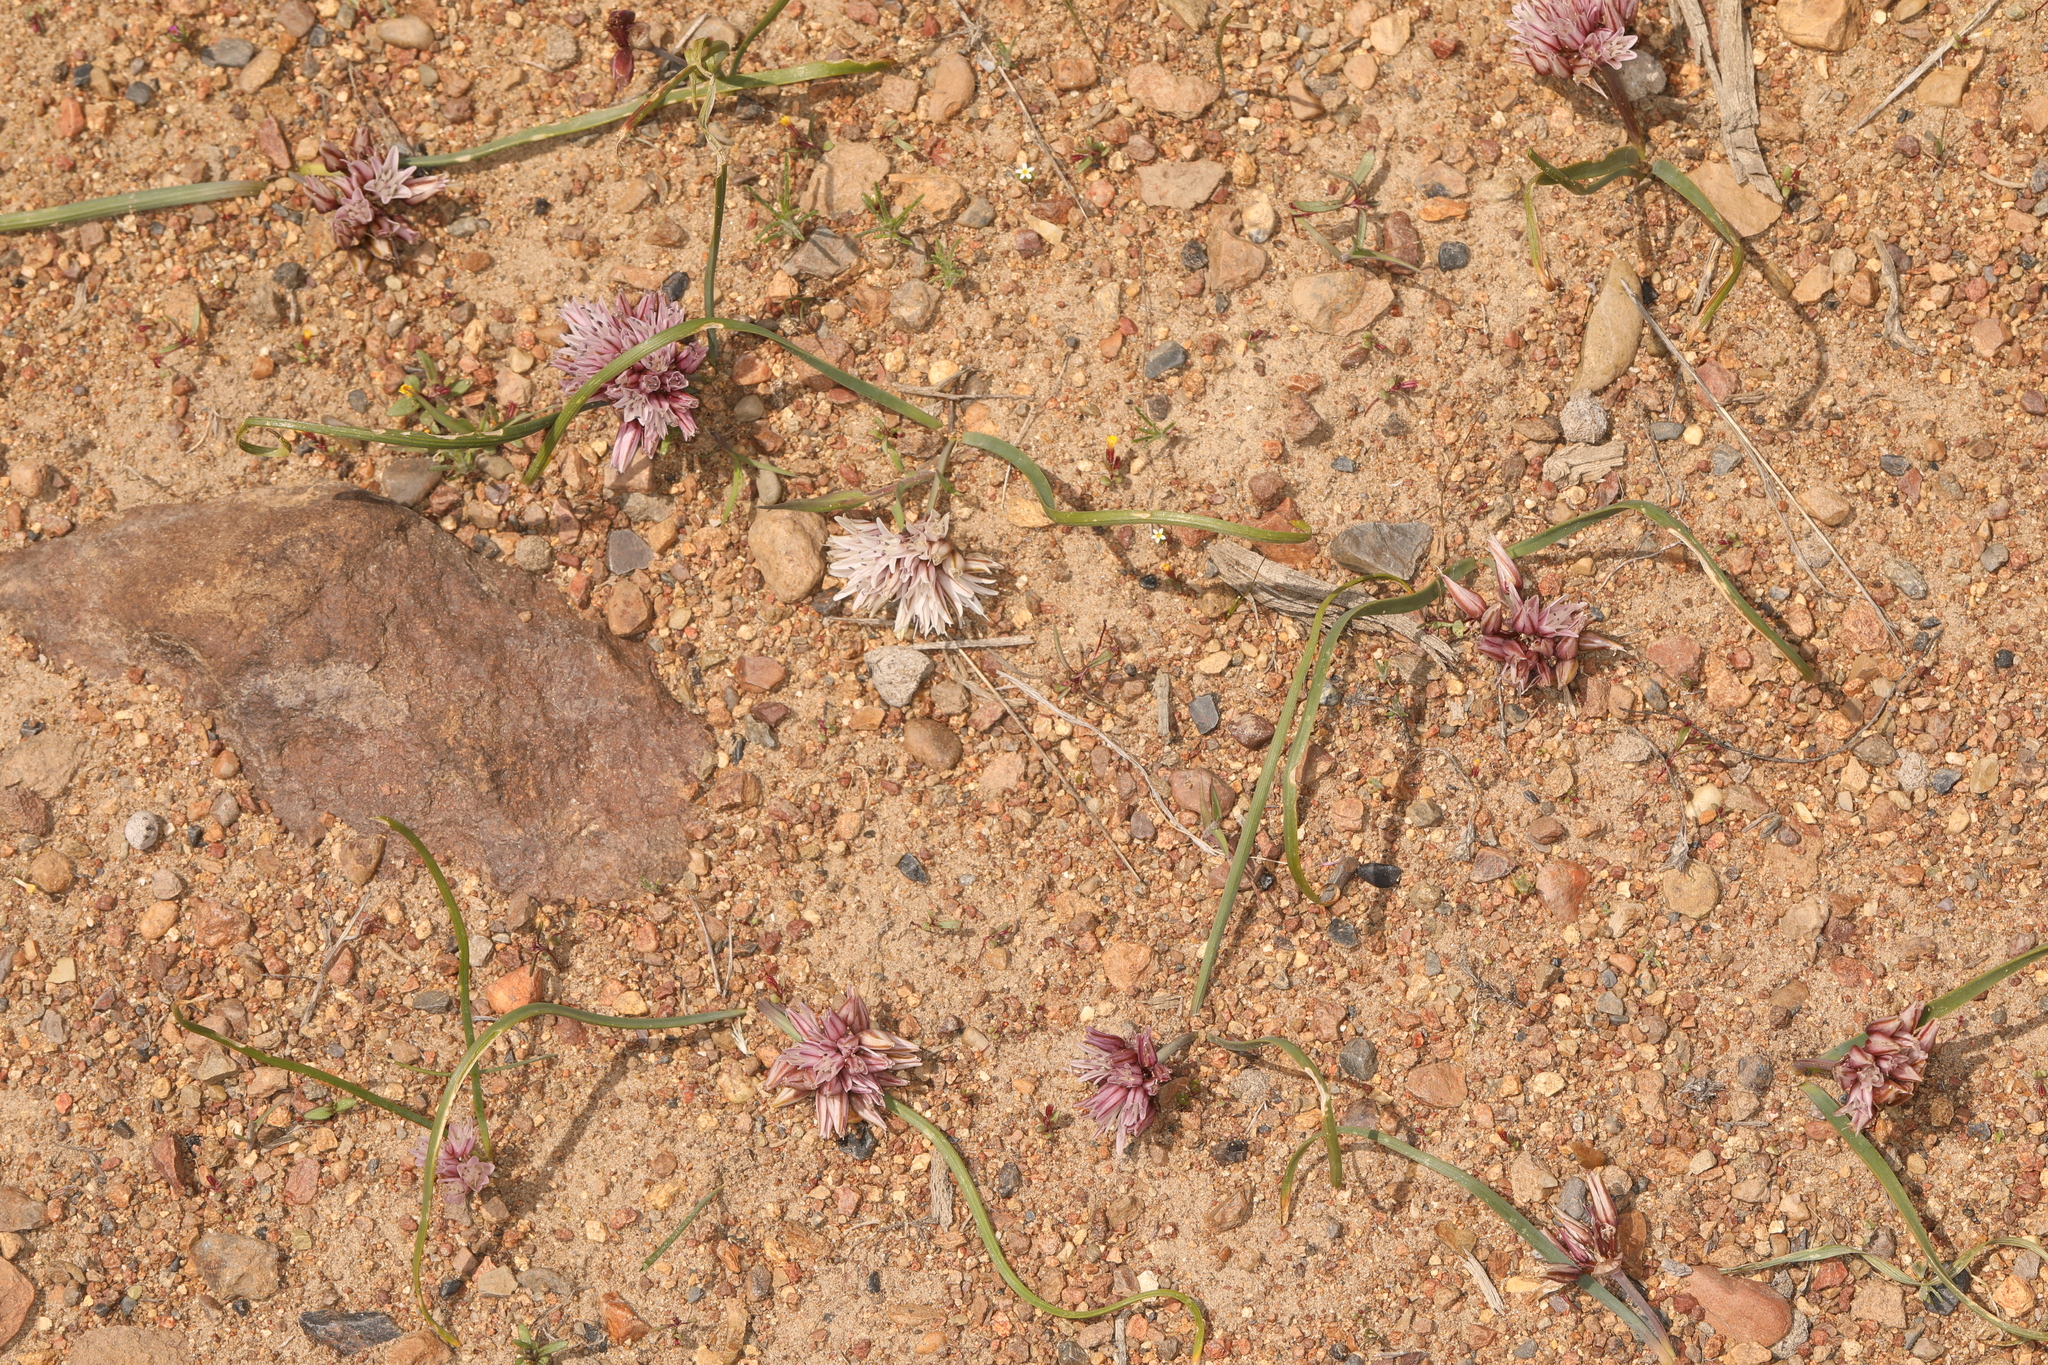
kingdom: Plantae
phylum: Tracheophyta
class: Liliopsida
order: Asparagales
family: Amaryllidaceae
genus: Allium
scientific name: Allium parvum
